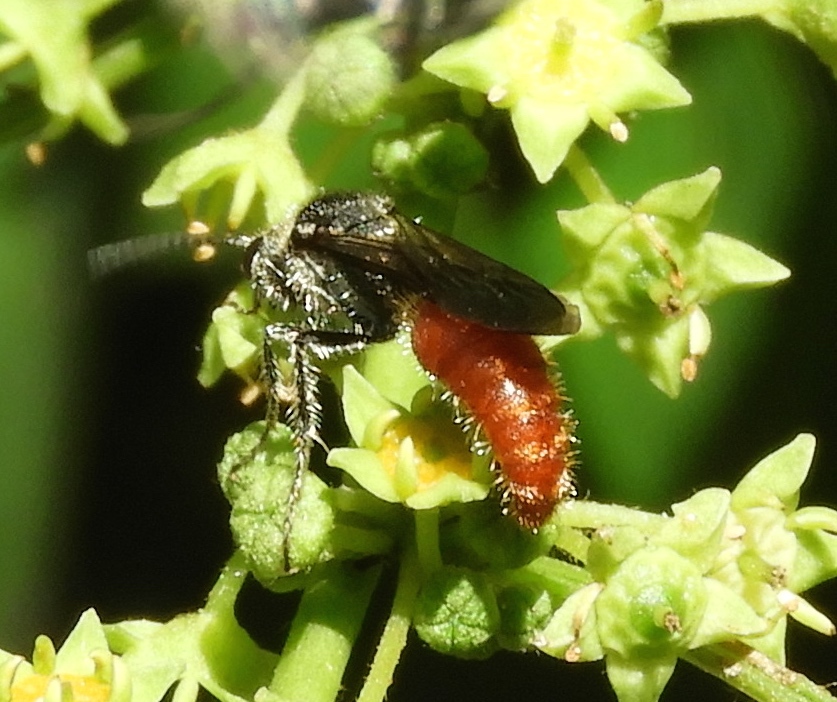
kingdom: Animalia
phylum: Arthropoda
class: Insecta
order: Hymenoptera
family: Mutillidae
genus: Timulla
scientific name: Timulla
